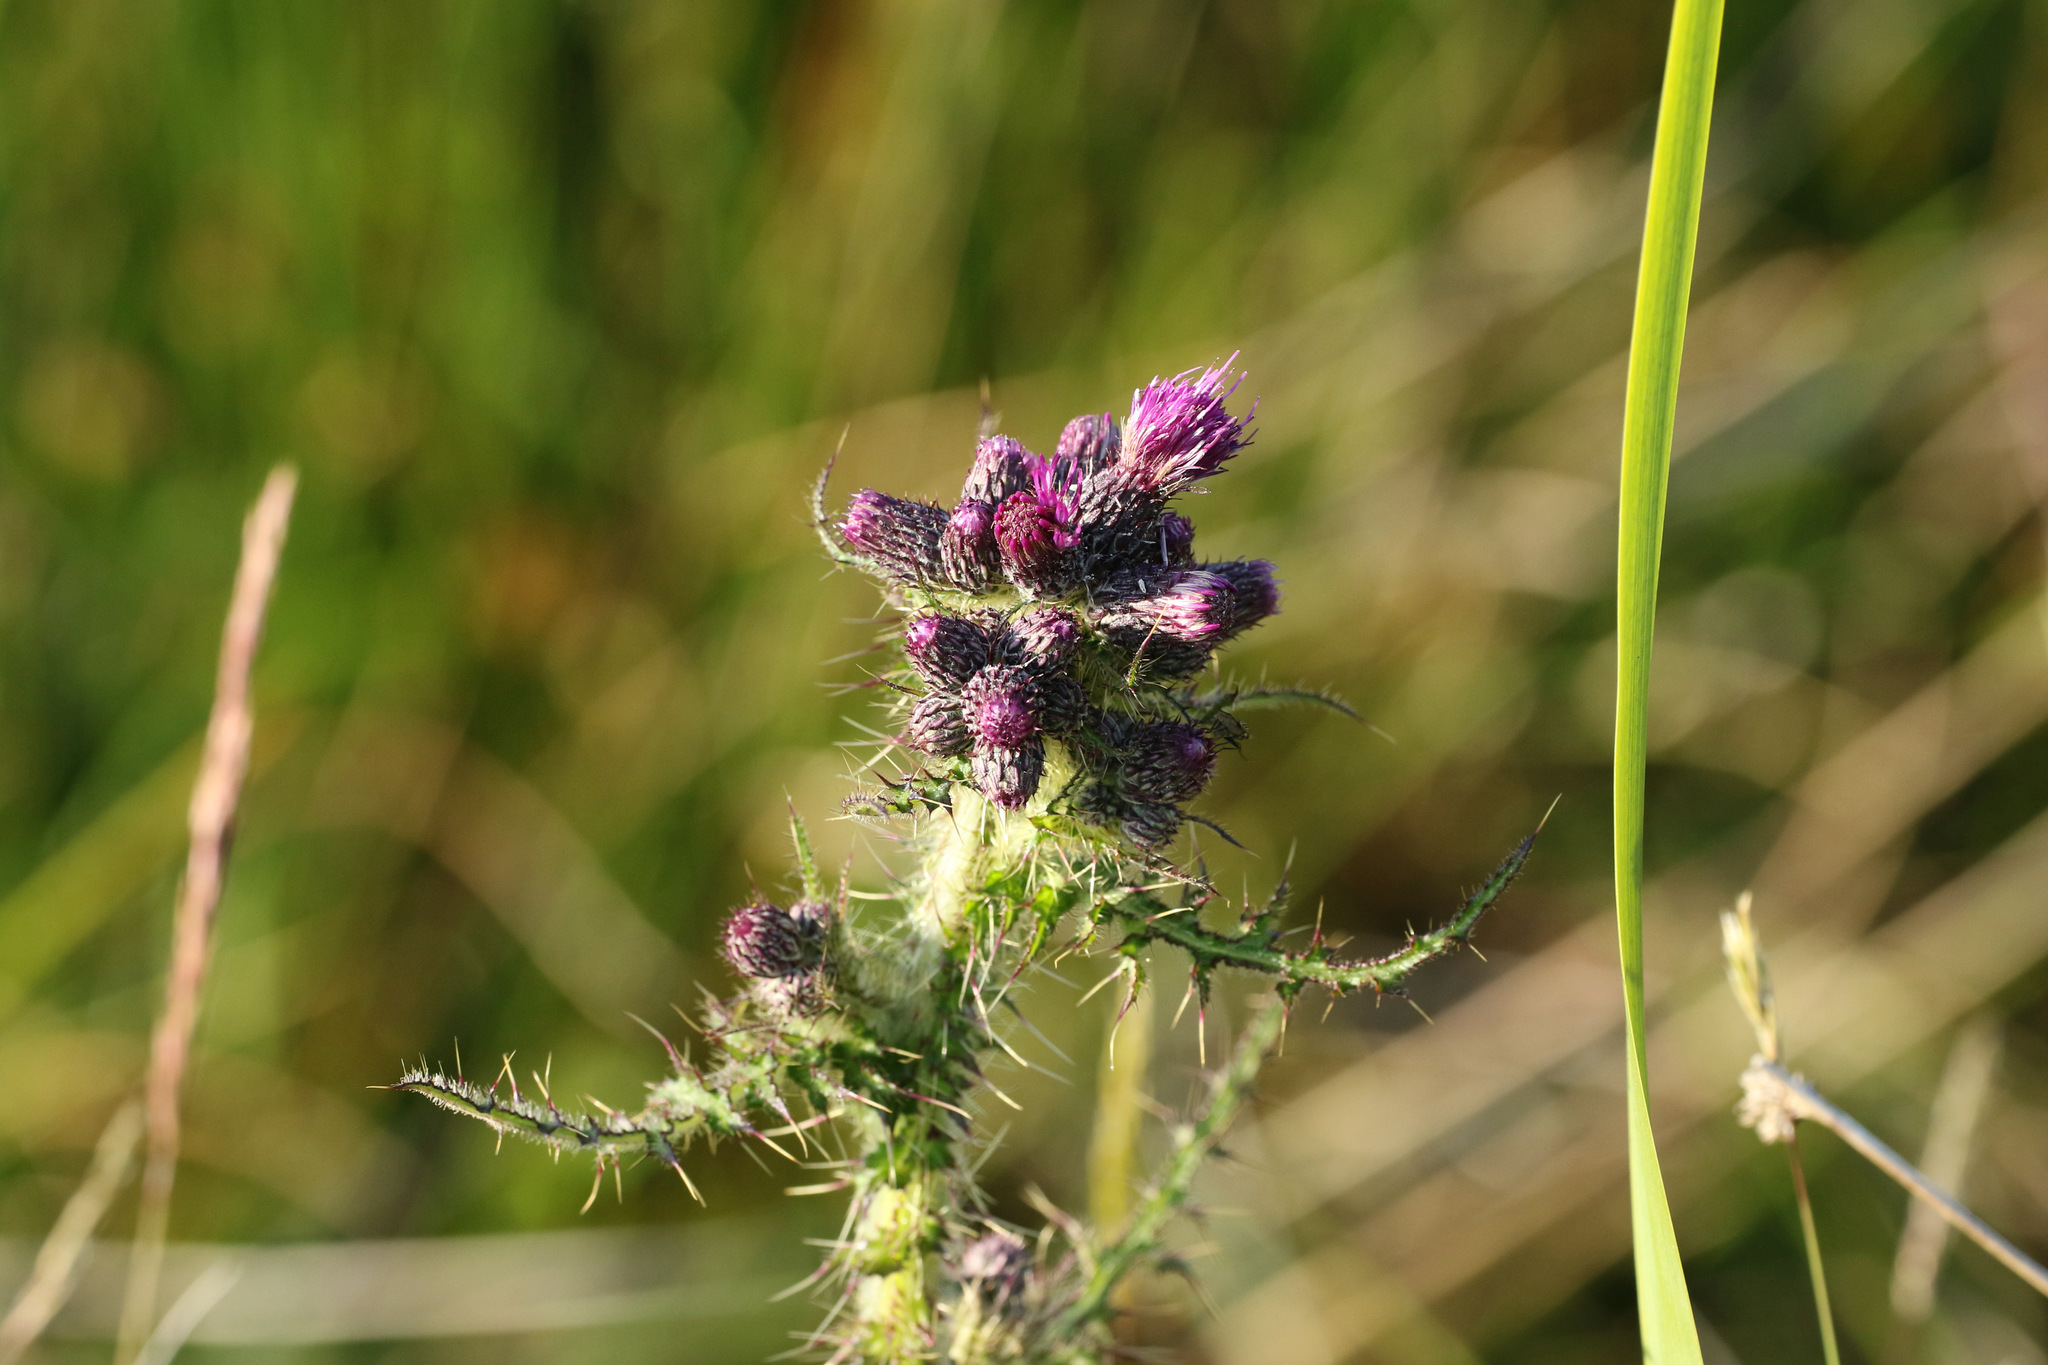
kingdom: Plantae
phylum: Tracheophyta
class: Magnoliopsida
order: Asterales
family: Asteraceae
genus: Cirsium
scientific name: Cirsium palustre
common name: Marsh thistle
